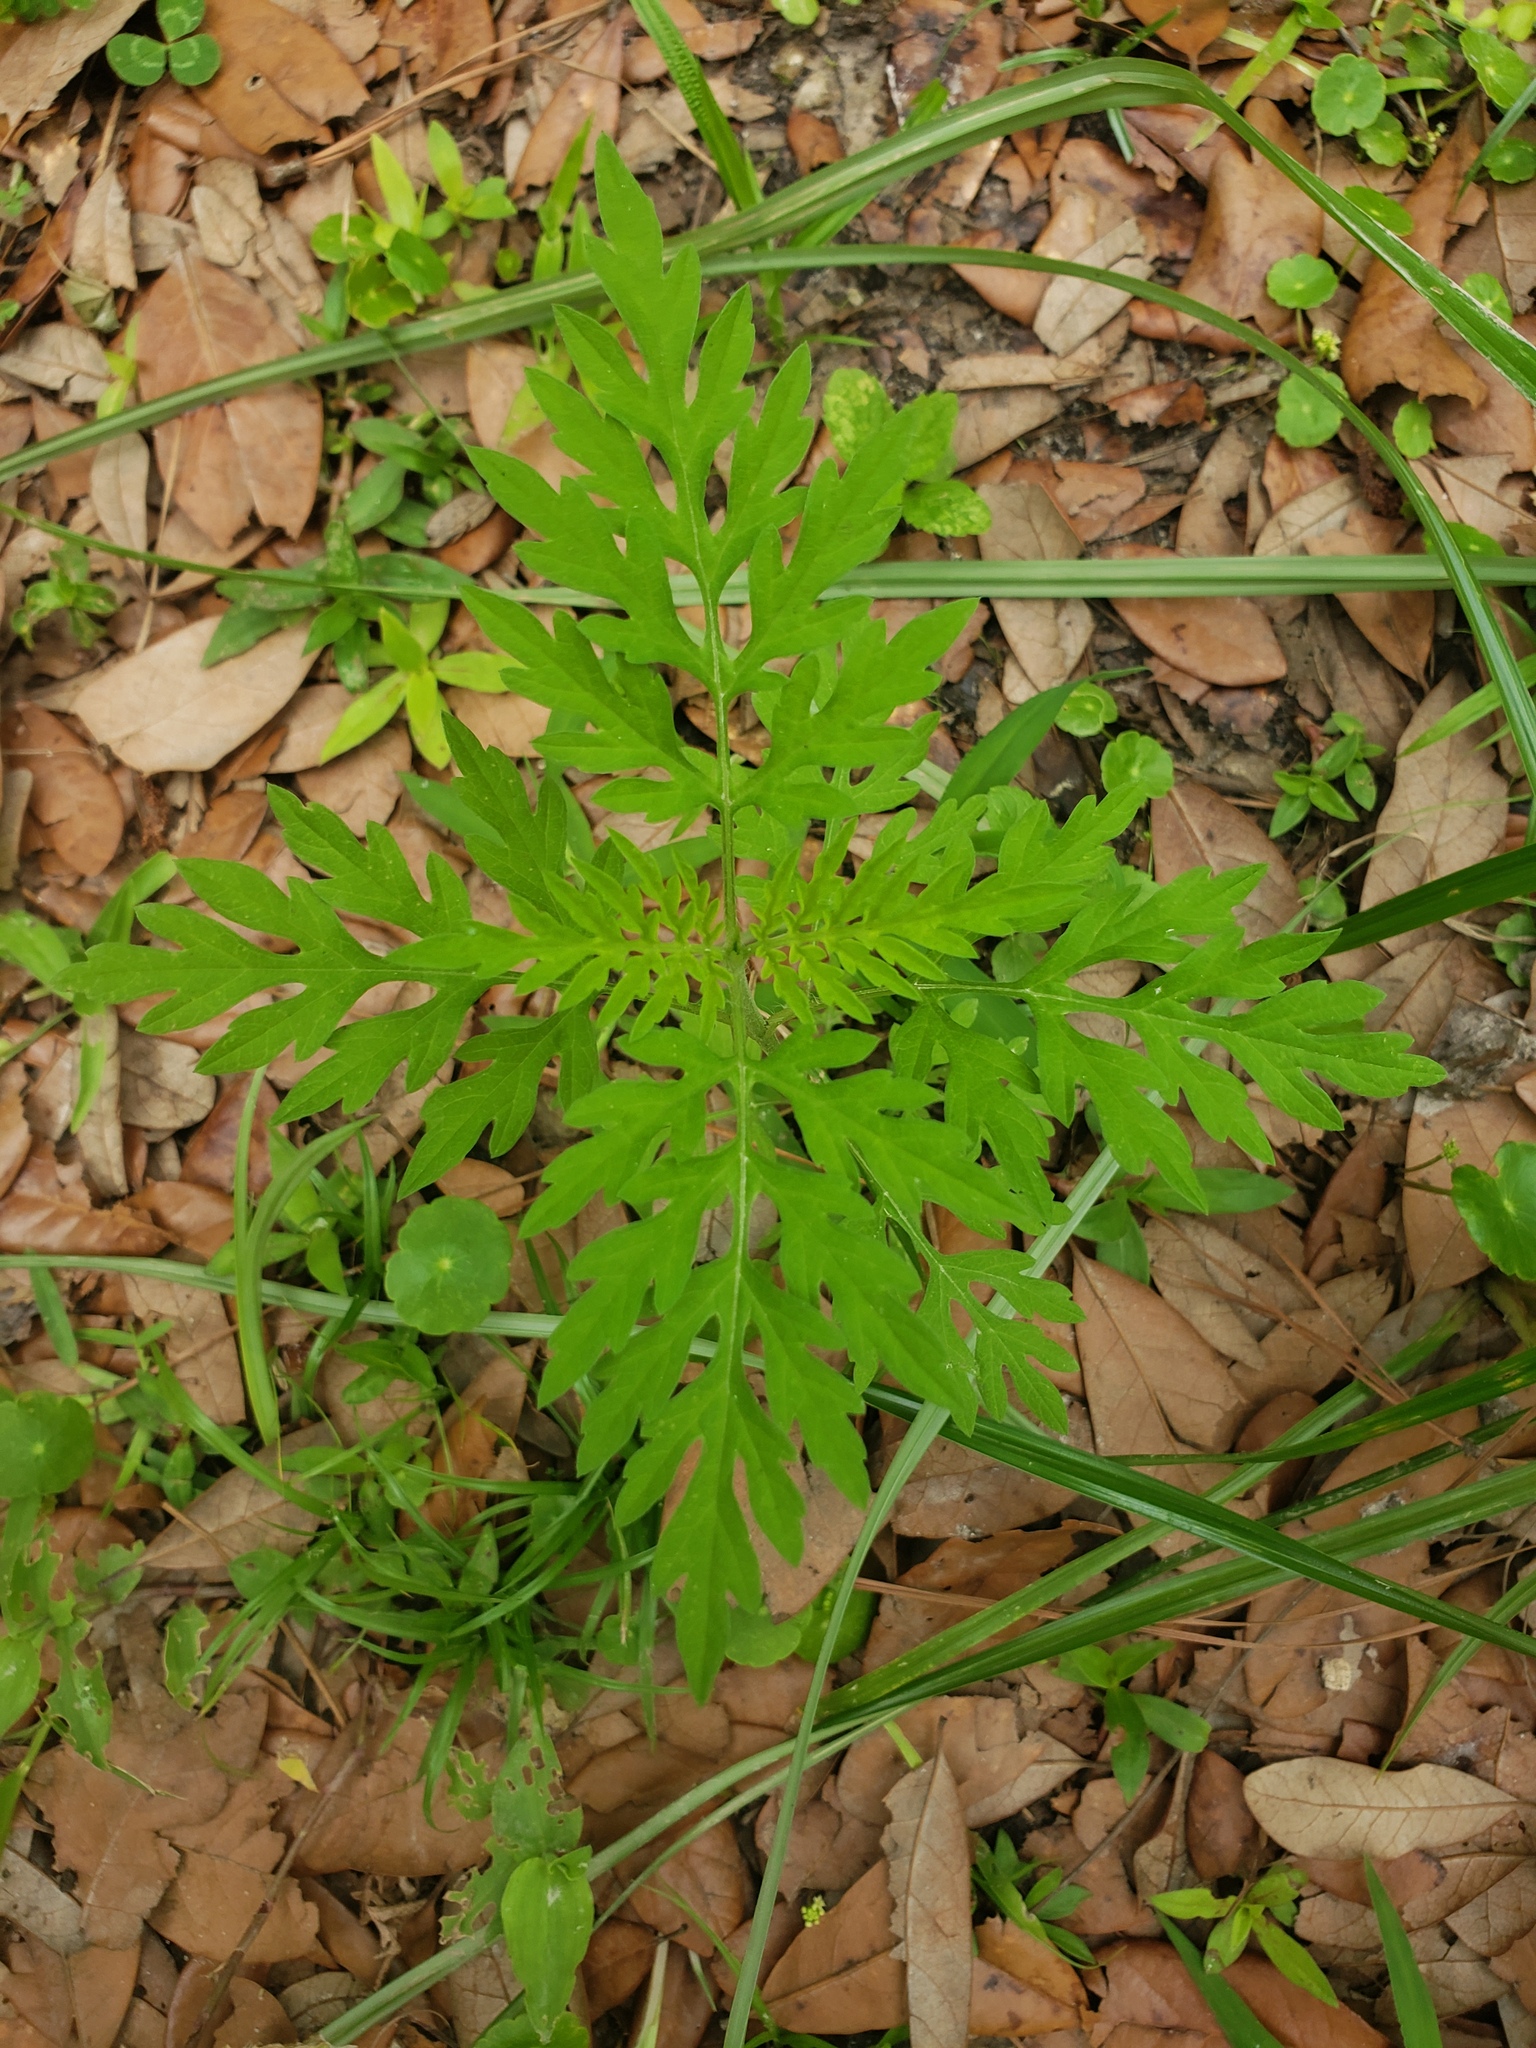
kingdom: Plantae
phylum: Tracheophyta
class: Magnoliopsida
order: Asterales
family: Asteraceae
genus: Ambrosia
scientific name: Ambrosia artemisiifolia
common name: Annual ragweed
